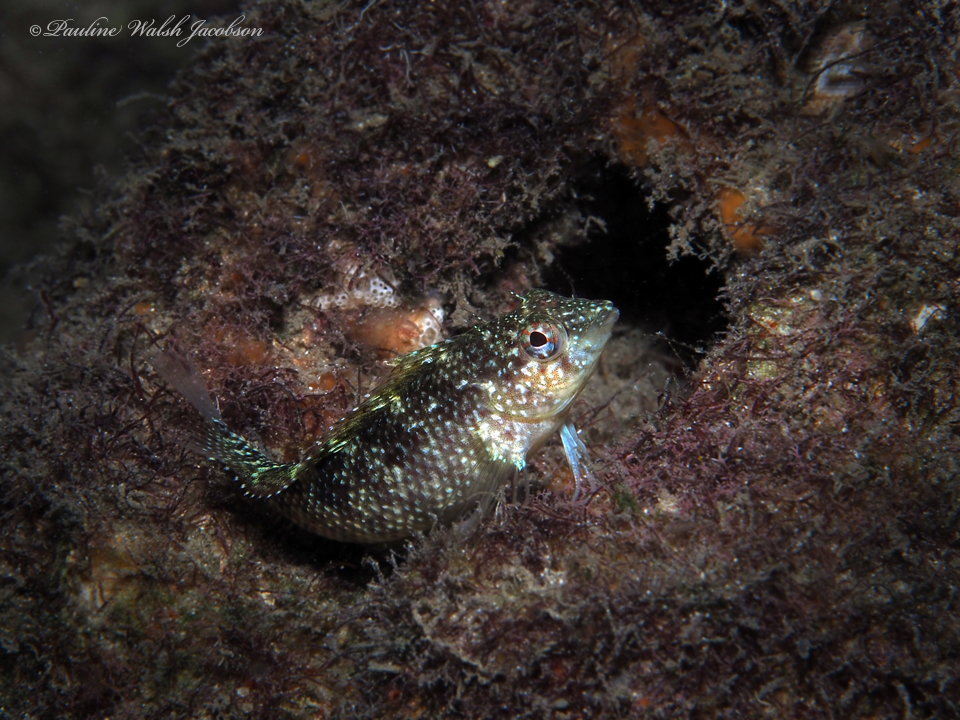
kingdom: Animalia
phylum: Chordata
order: Perciformes
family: Labrisomidae
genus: Malacoctenus
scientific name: Malacoctenus macropus
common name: Rosy blenny
